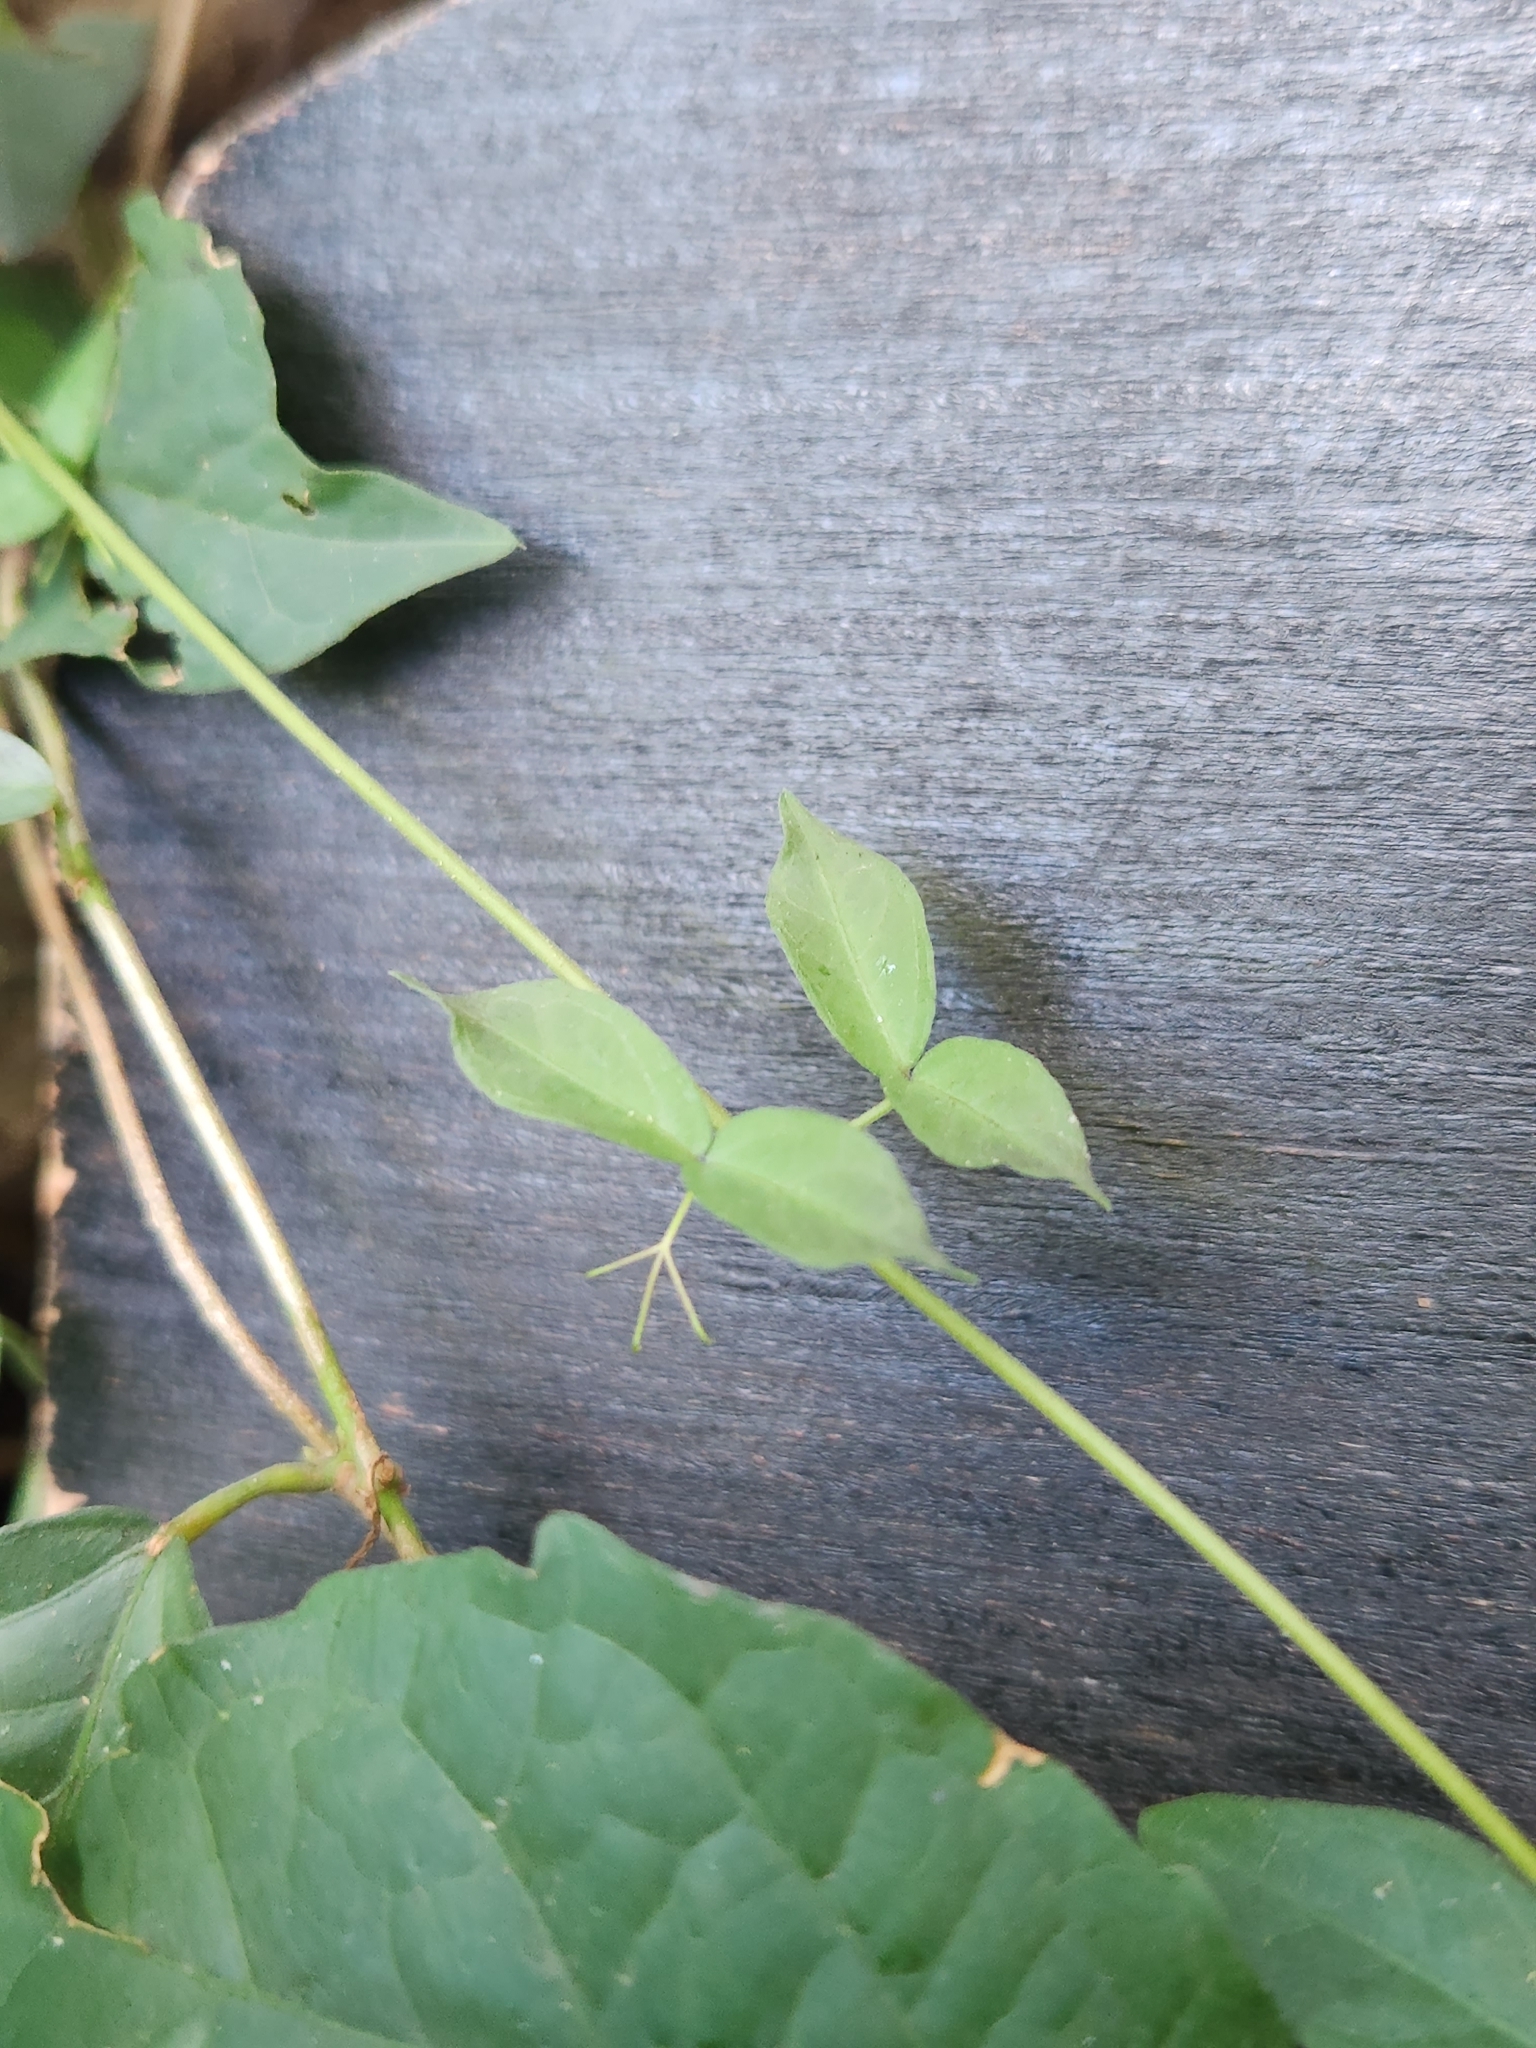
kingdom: Plantae
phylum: Tracheophyta
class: Magnoliopsida
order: Lamiales
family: Bignoniaceae
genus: Dolichandra
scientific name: Dolichandra unguis-cati
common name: Catclaw vine
